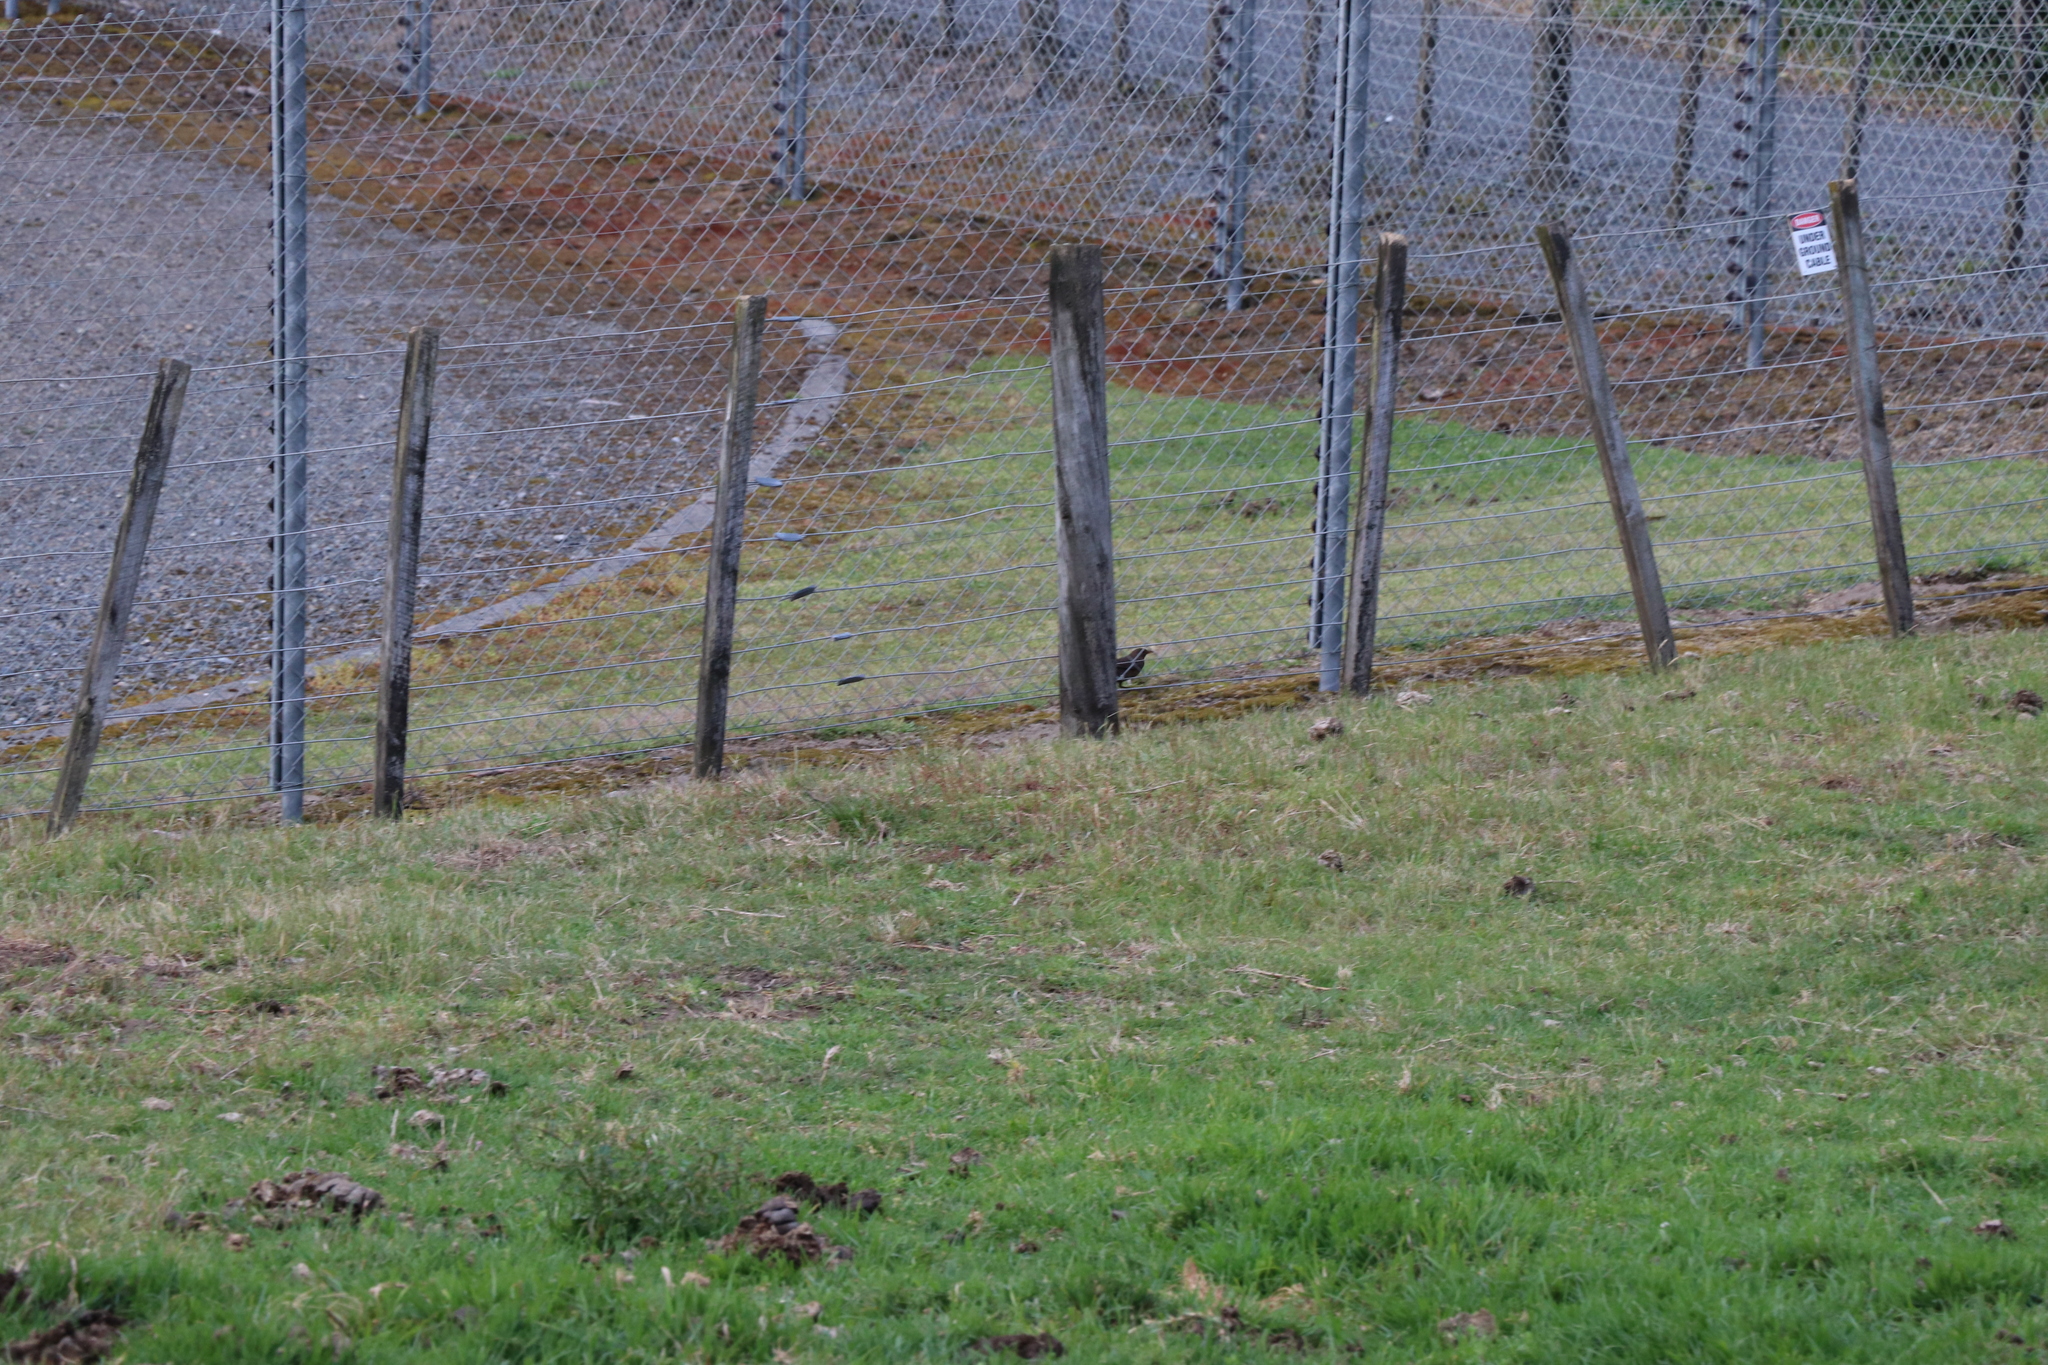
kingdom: Animalia
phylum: Chordata
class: Aves
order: Passeriformes
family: Turdidae
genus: Turdus
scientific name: Turdus merula
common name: Common blackbird
